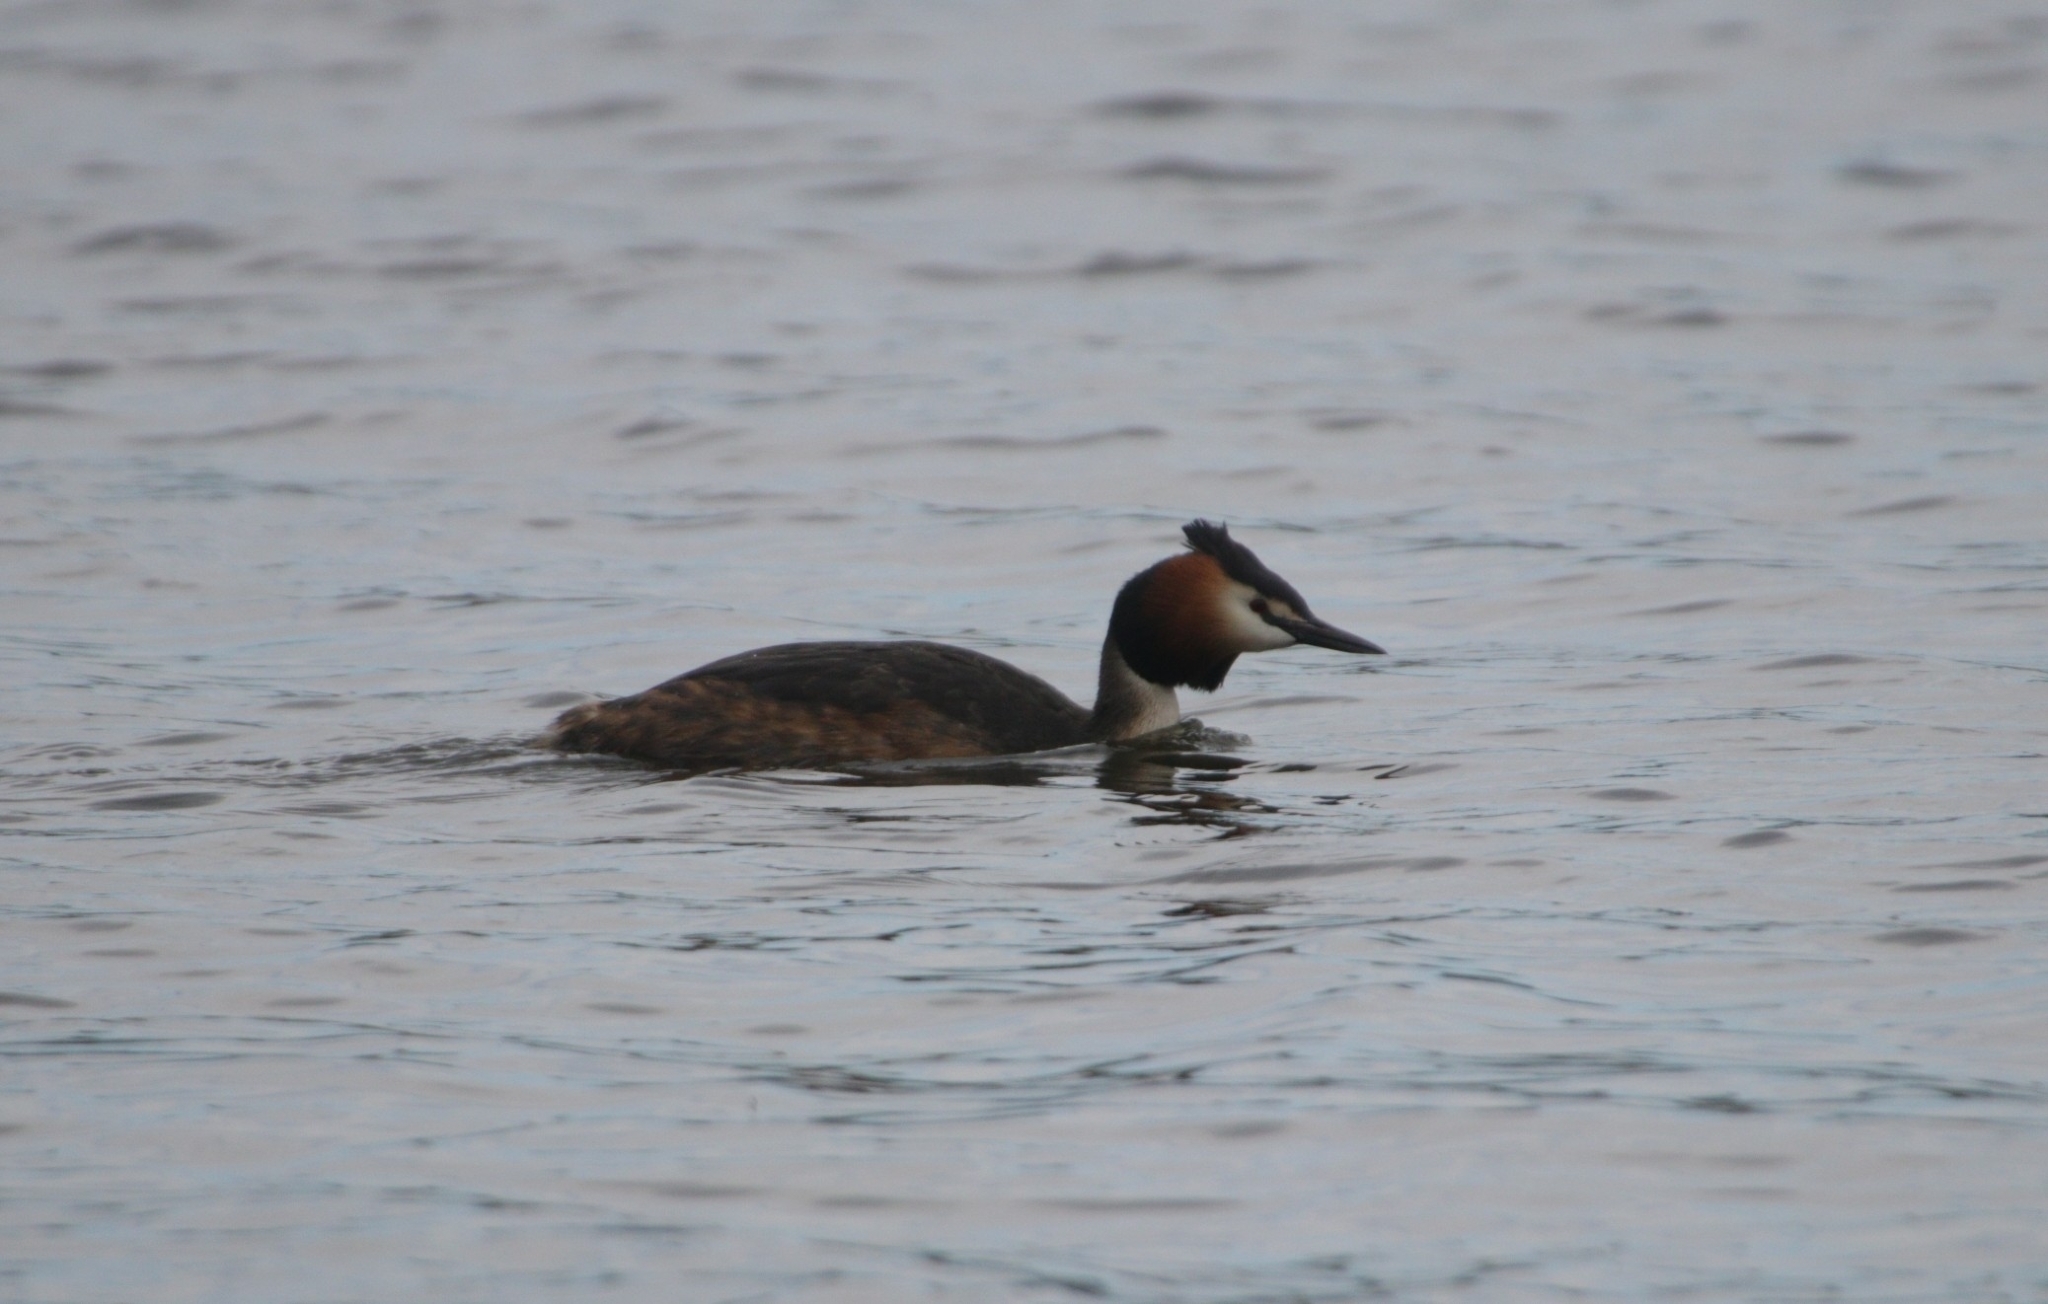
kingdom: Animalia
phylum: Chordata
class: Aves
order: Podicipediformes
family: Podicipedidae
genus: Podiceps
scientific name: Podiceps cristatus
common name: Great crested grebe
